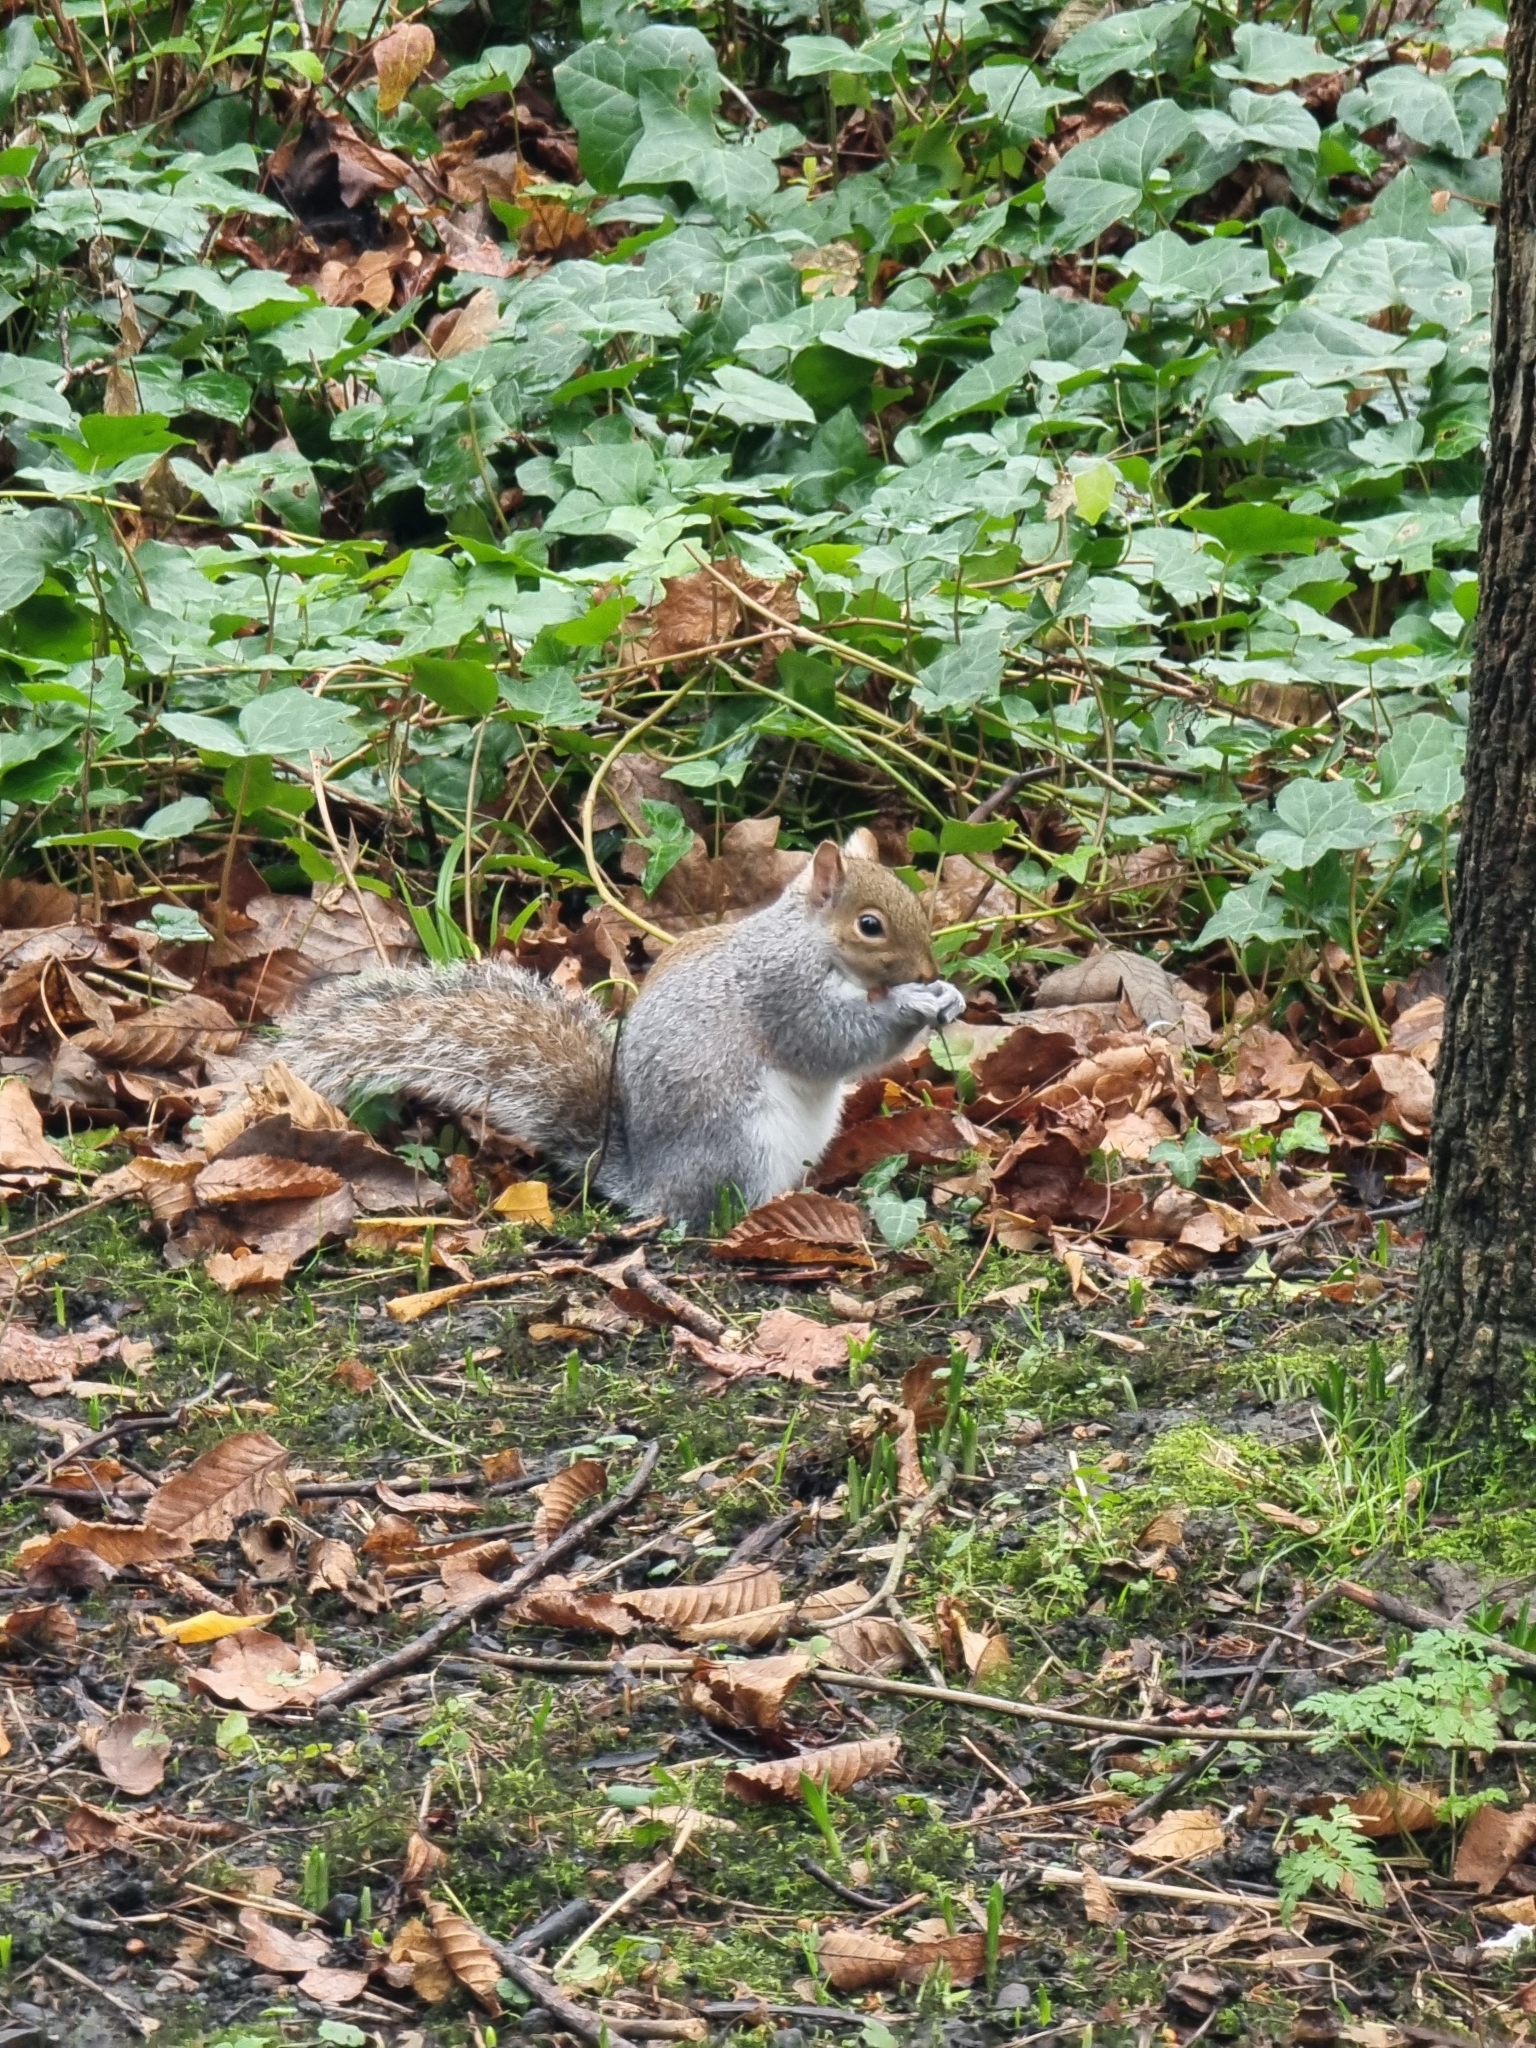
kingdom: Animalia
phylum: Chordata
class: Mammalia
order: Rodentia
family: Sciuridae
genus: Sciurus
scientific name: Sciurus carolinensis
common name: Eastern gray squirrel
